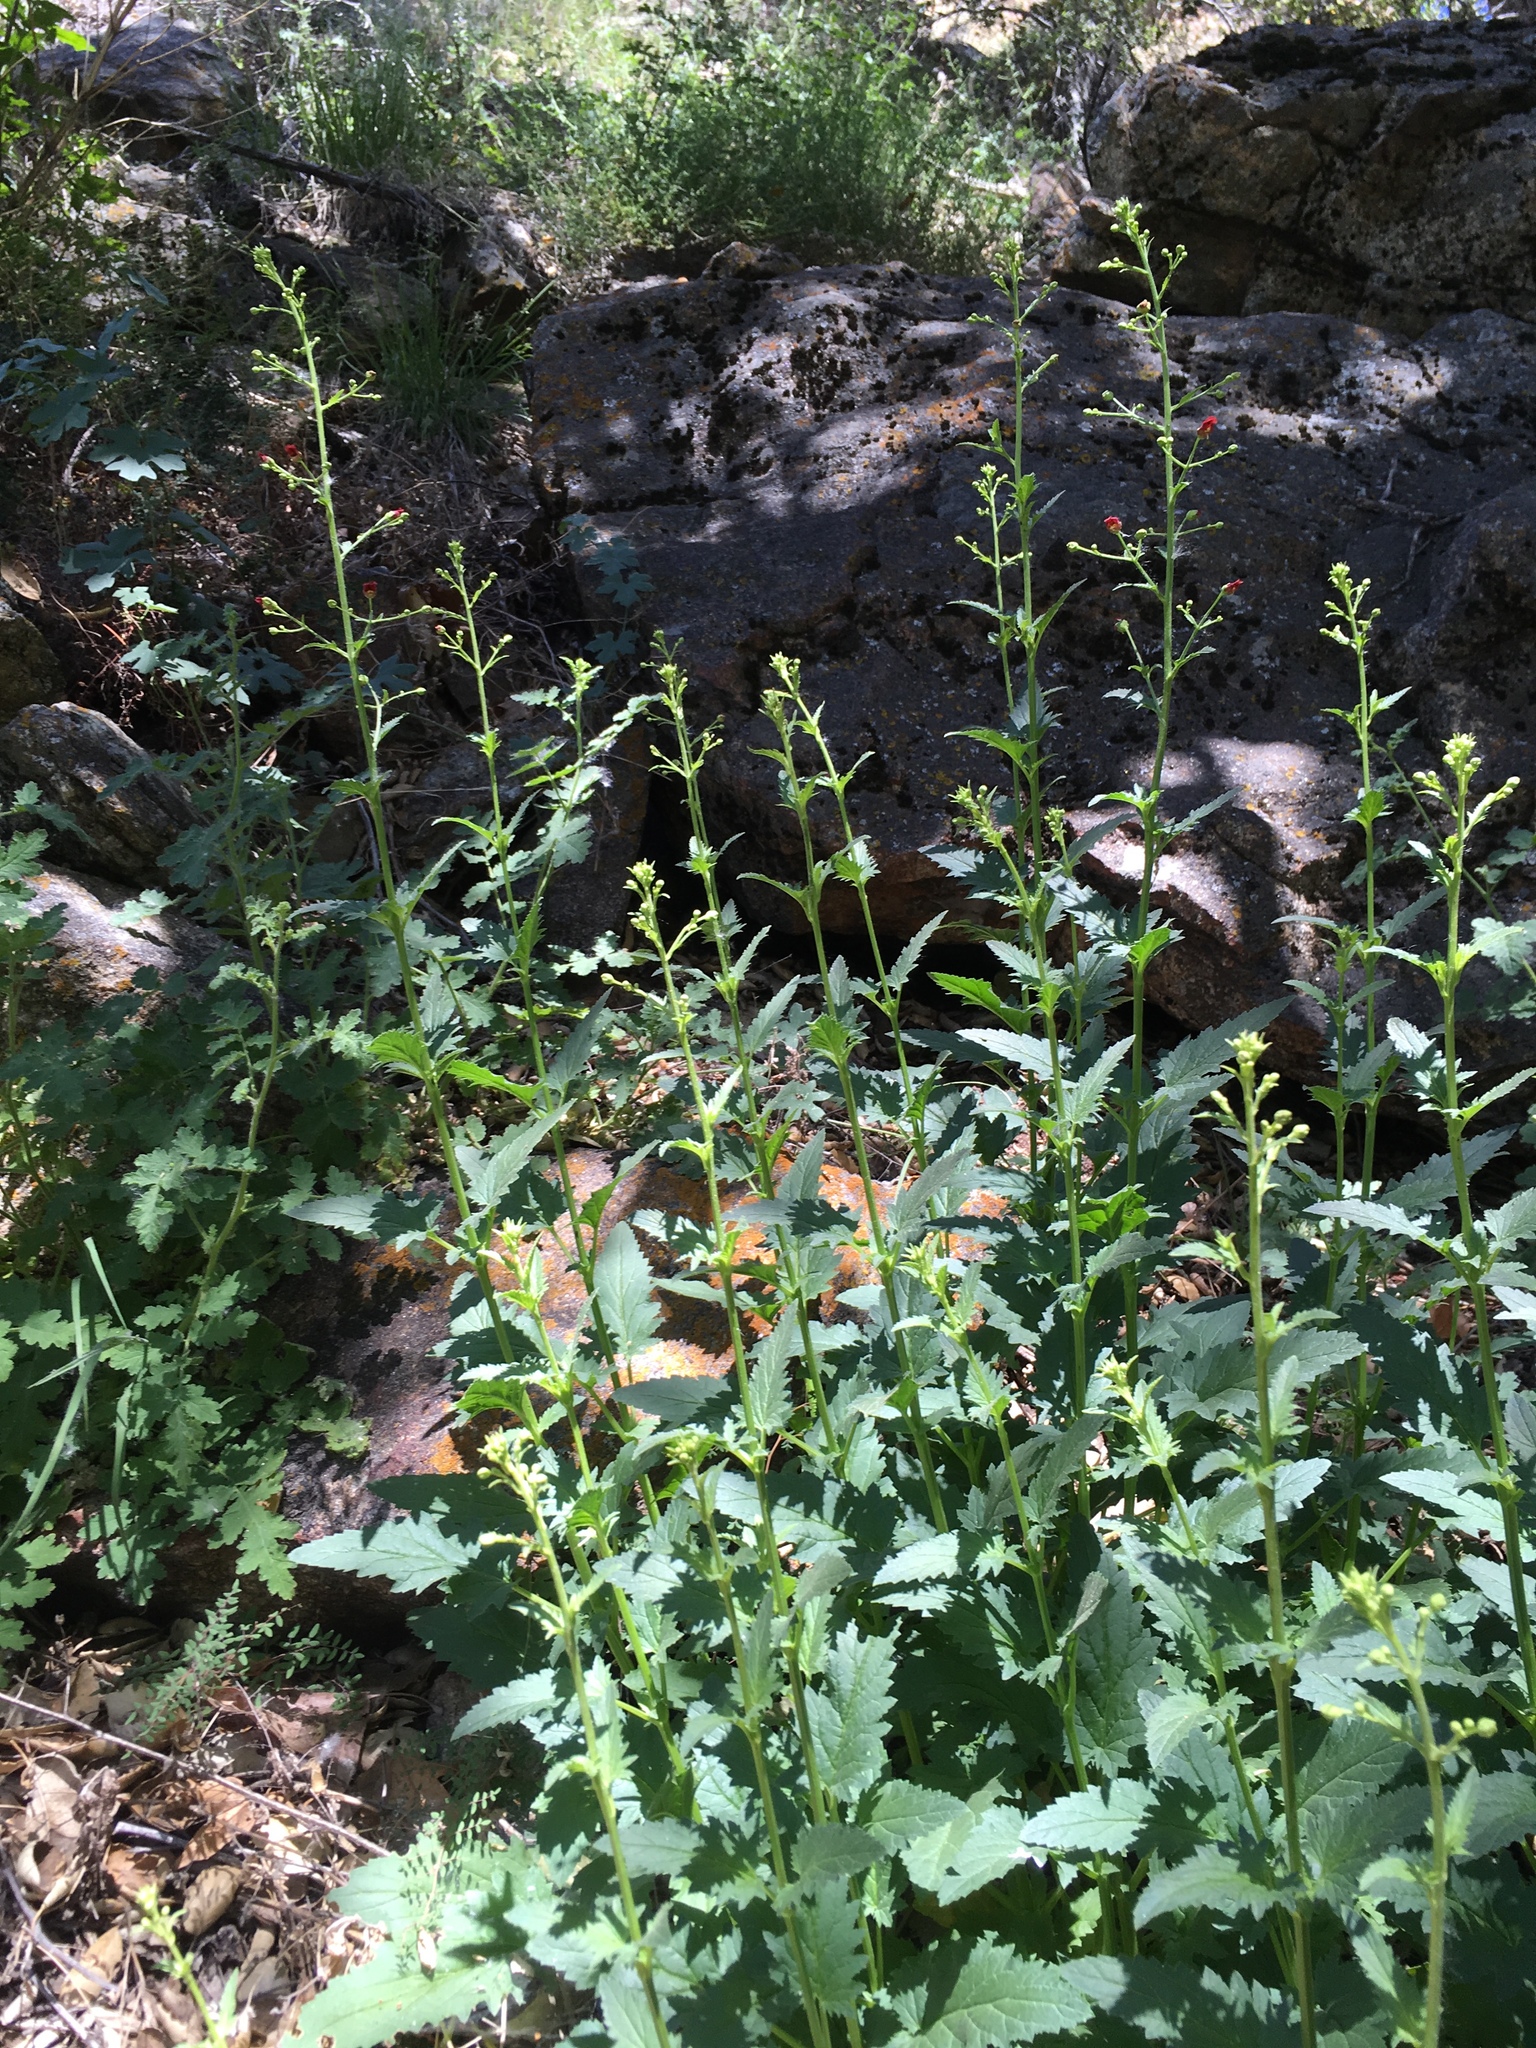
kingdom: Plantae
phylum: Tracheophyta
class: Magnoliopsida
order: Lamiales
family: Scrophulariaceae
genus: Scrophularia
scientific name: Scrophularia californica
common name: California figwort
